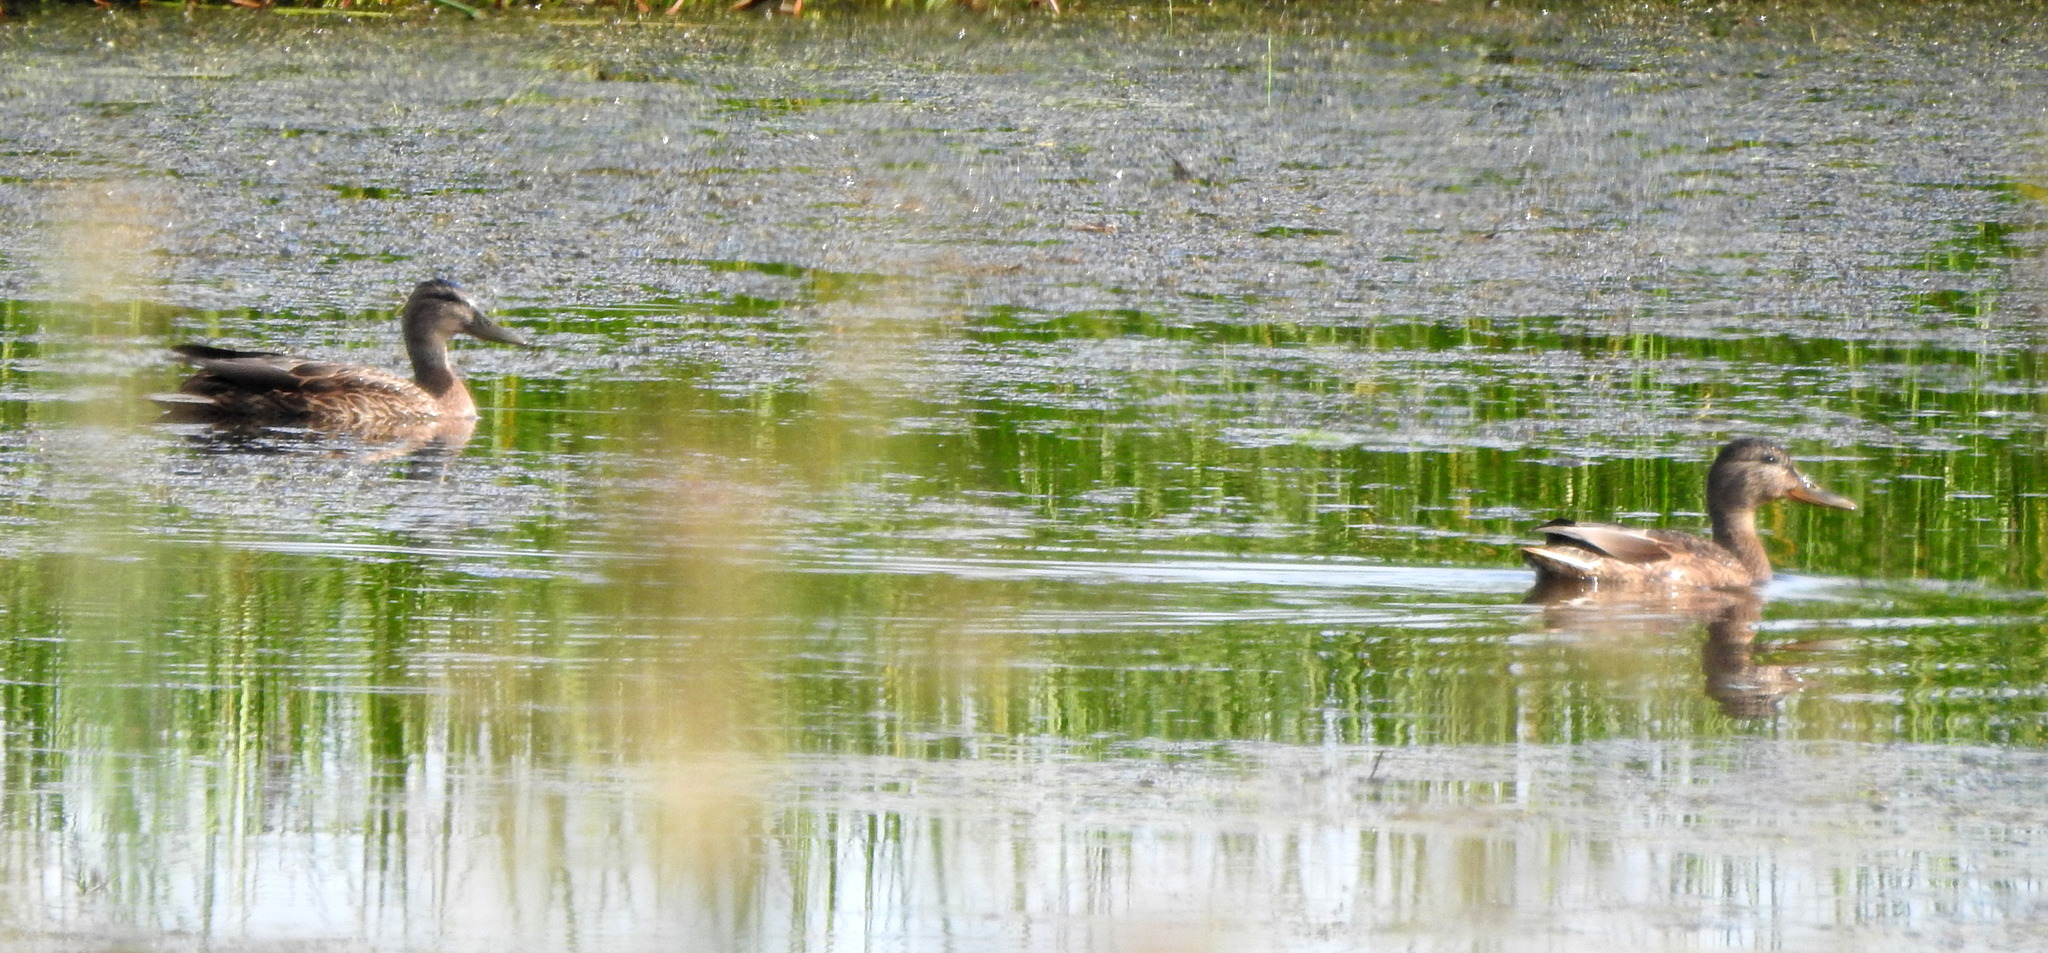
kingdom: Animalia
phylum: Chordata
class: Aves
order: Anseriformes
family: Anatidae
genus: Anas
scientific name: Anas platyrhynchos
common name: Mallard
